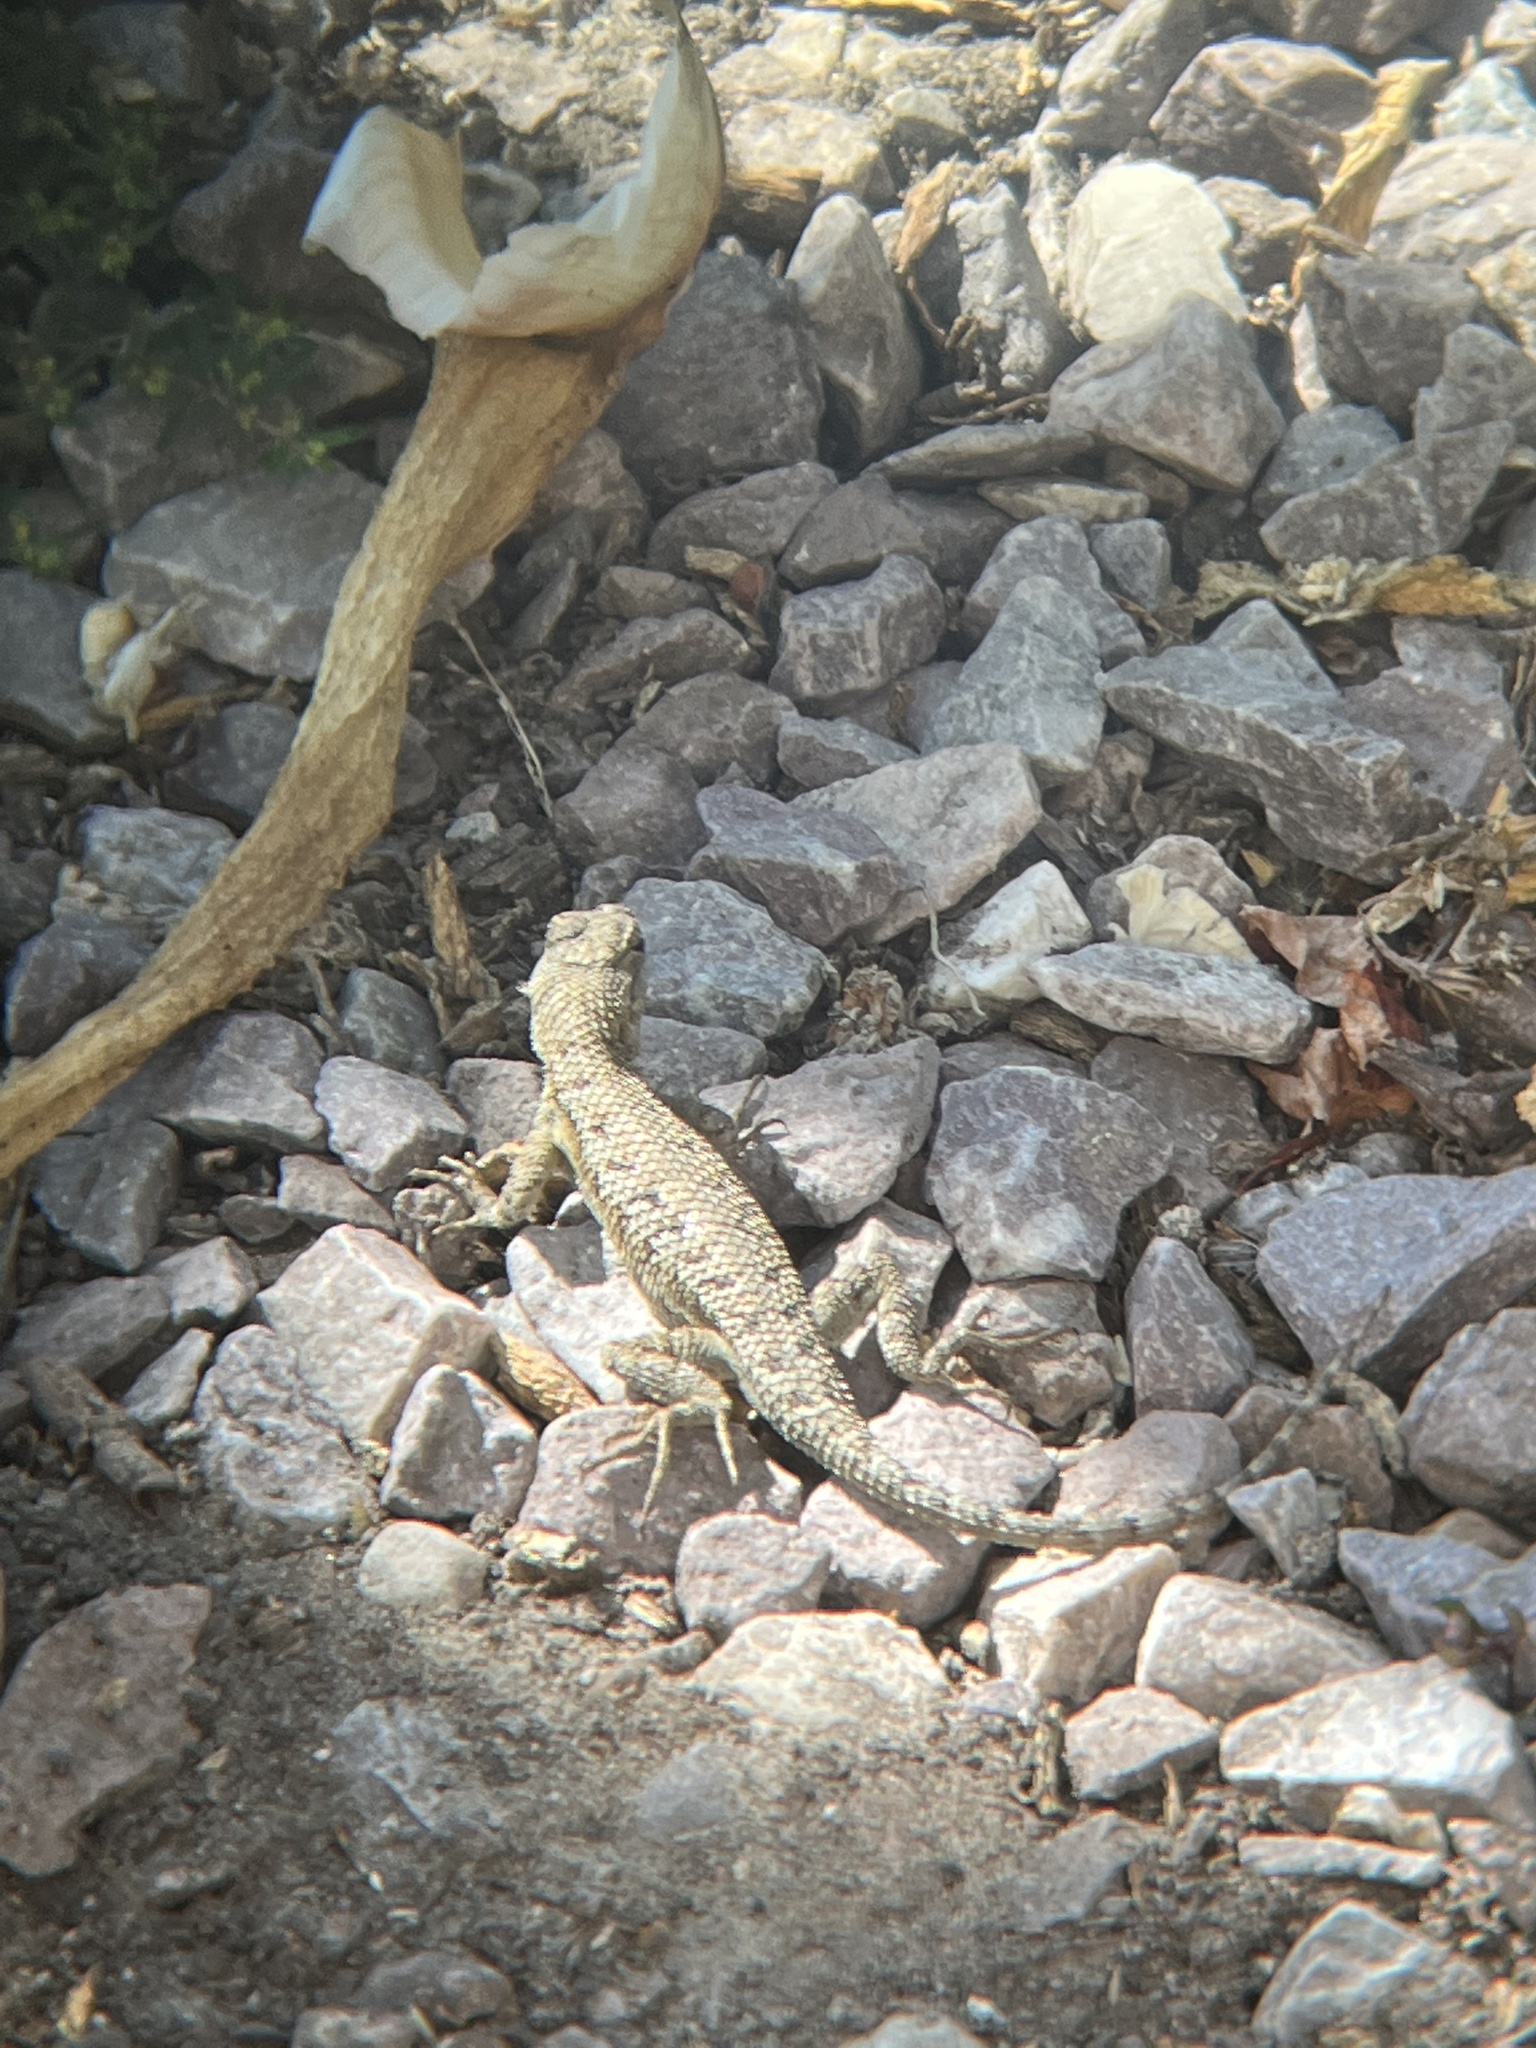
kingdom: Animalia
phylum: Chordata
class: Squamata
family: Phrynosomatidae
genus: Sceloporus
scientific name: Sceloporus occidentalis
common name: Western fence lizard
